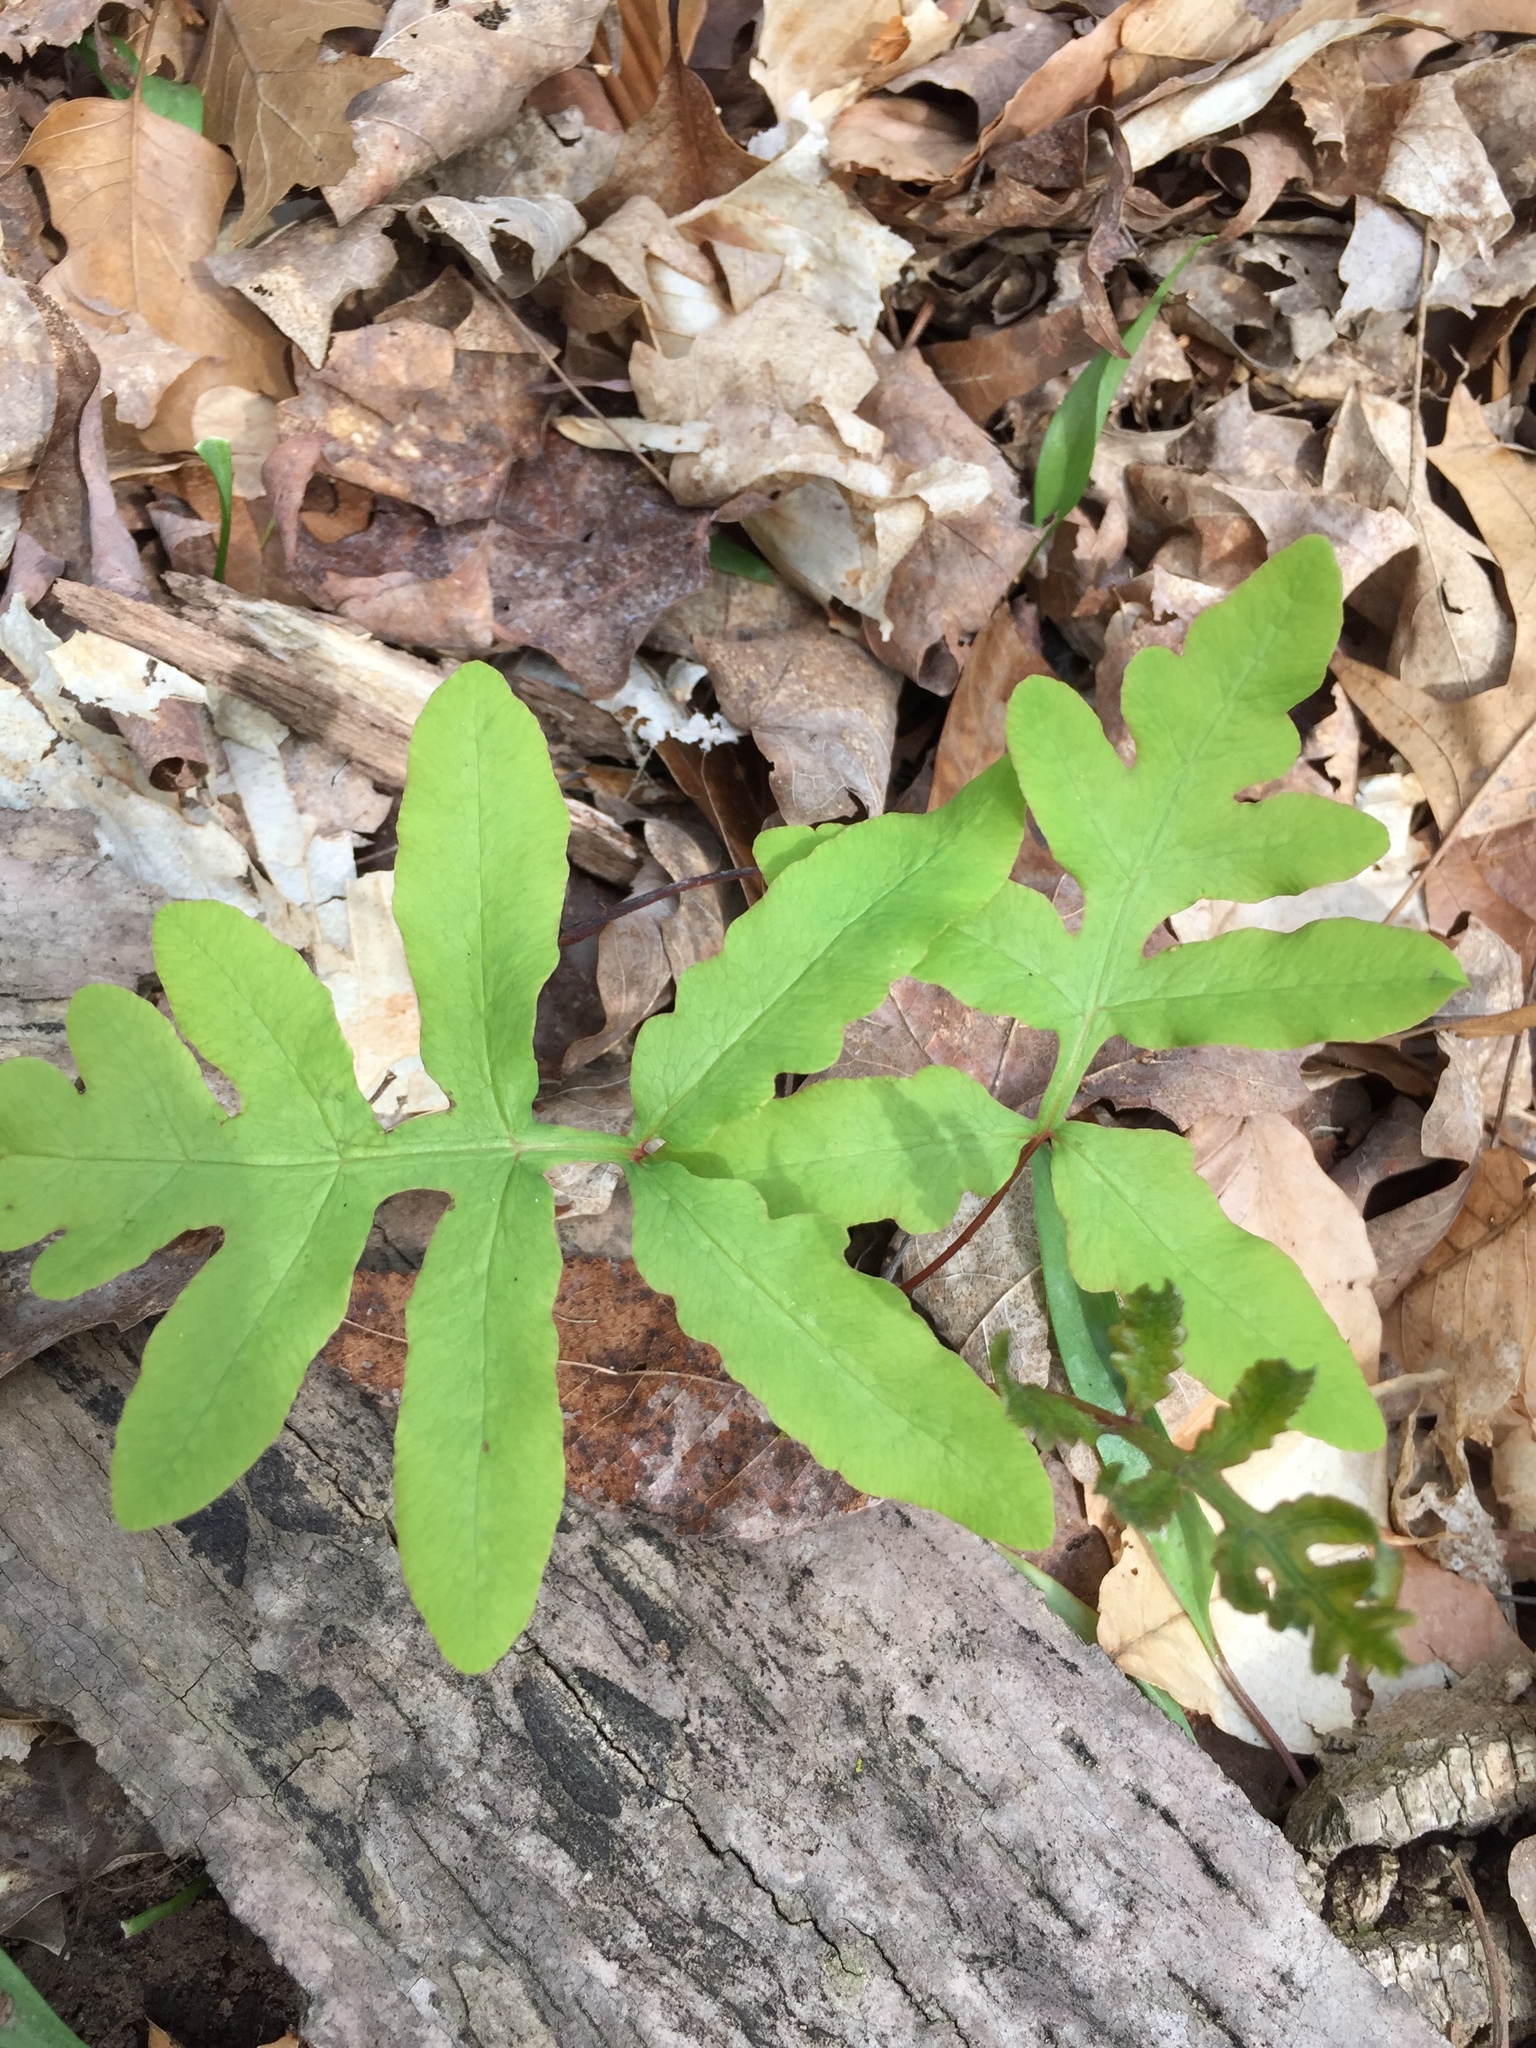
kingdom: Plantae
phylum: Tracheophyta
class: Polypodiopsida
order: Polypodiales
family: Onocleaceae
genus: Onoclea
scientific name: Onoclea sensibilis
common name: Sensitive fern
